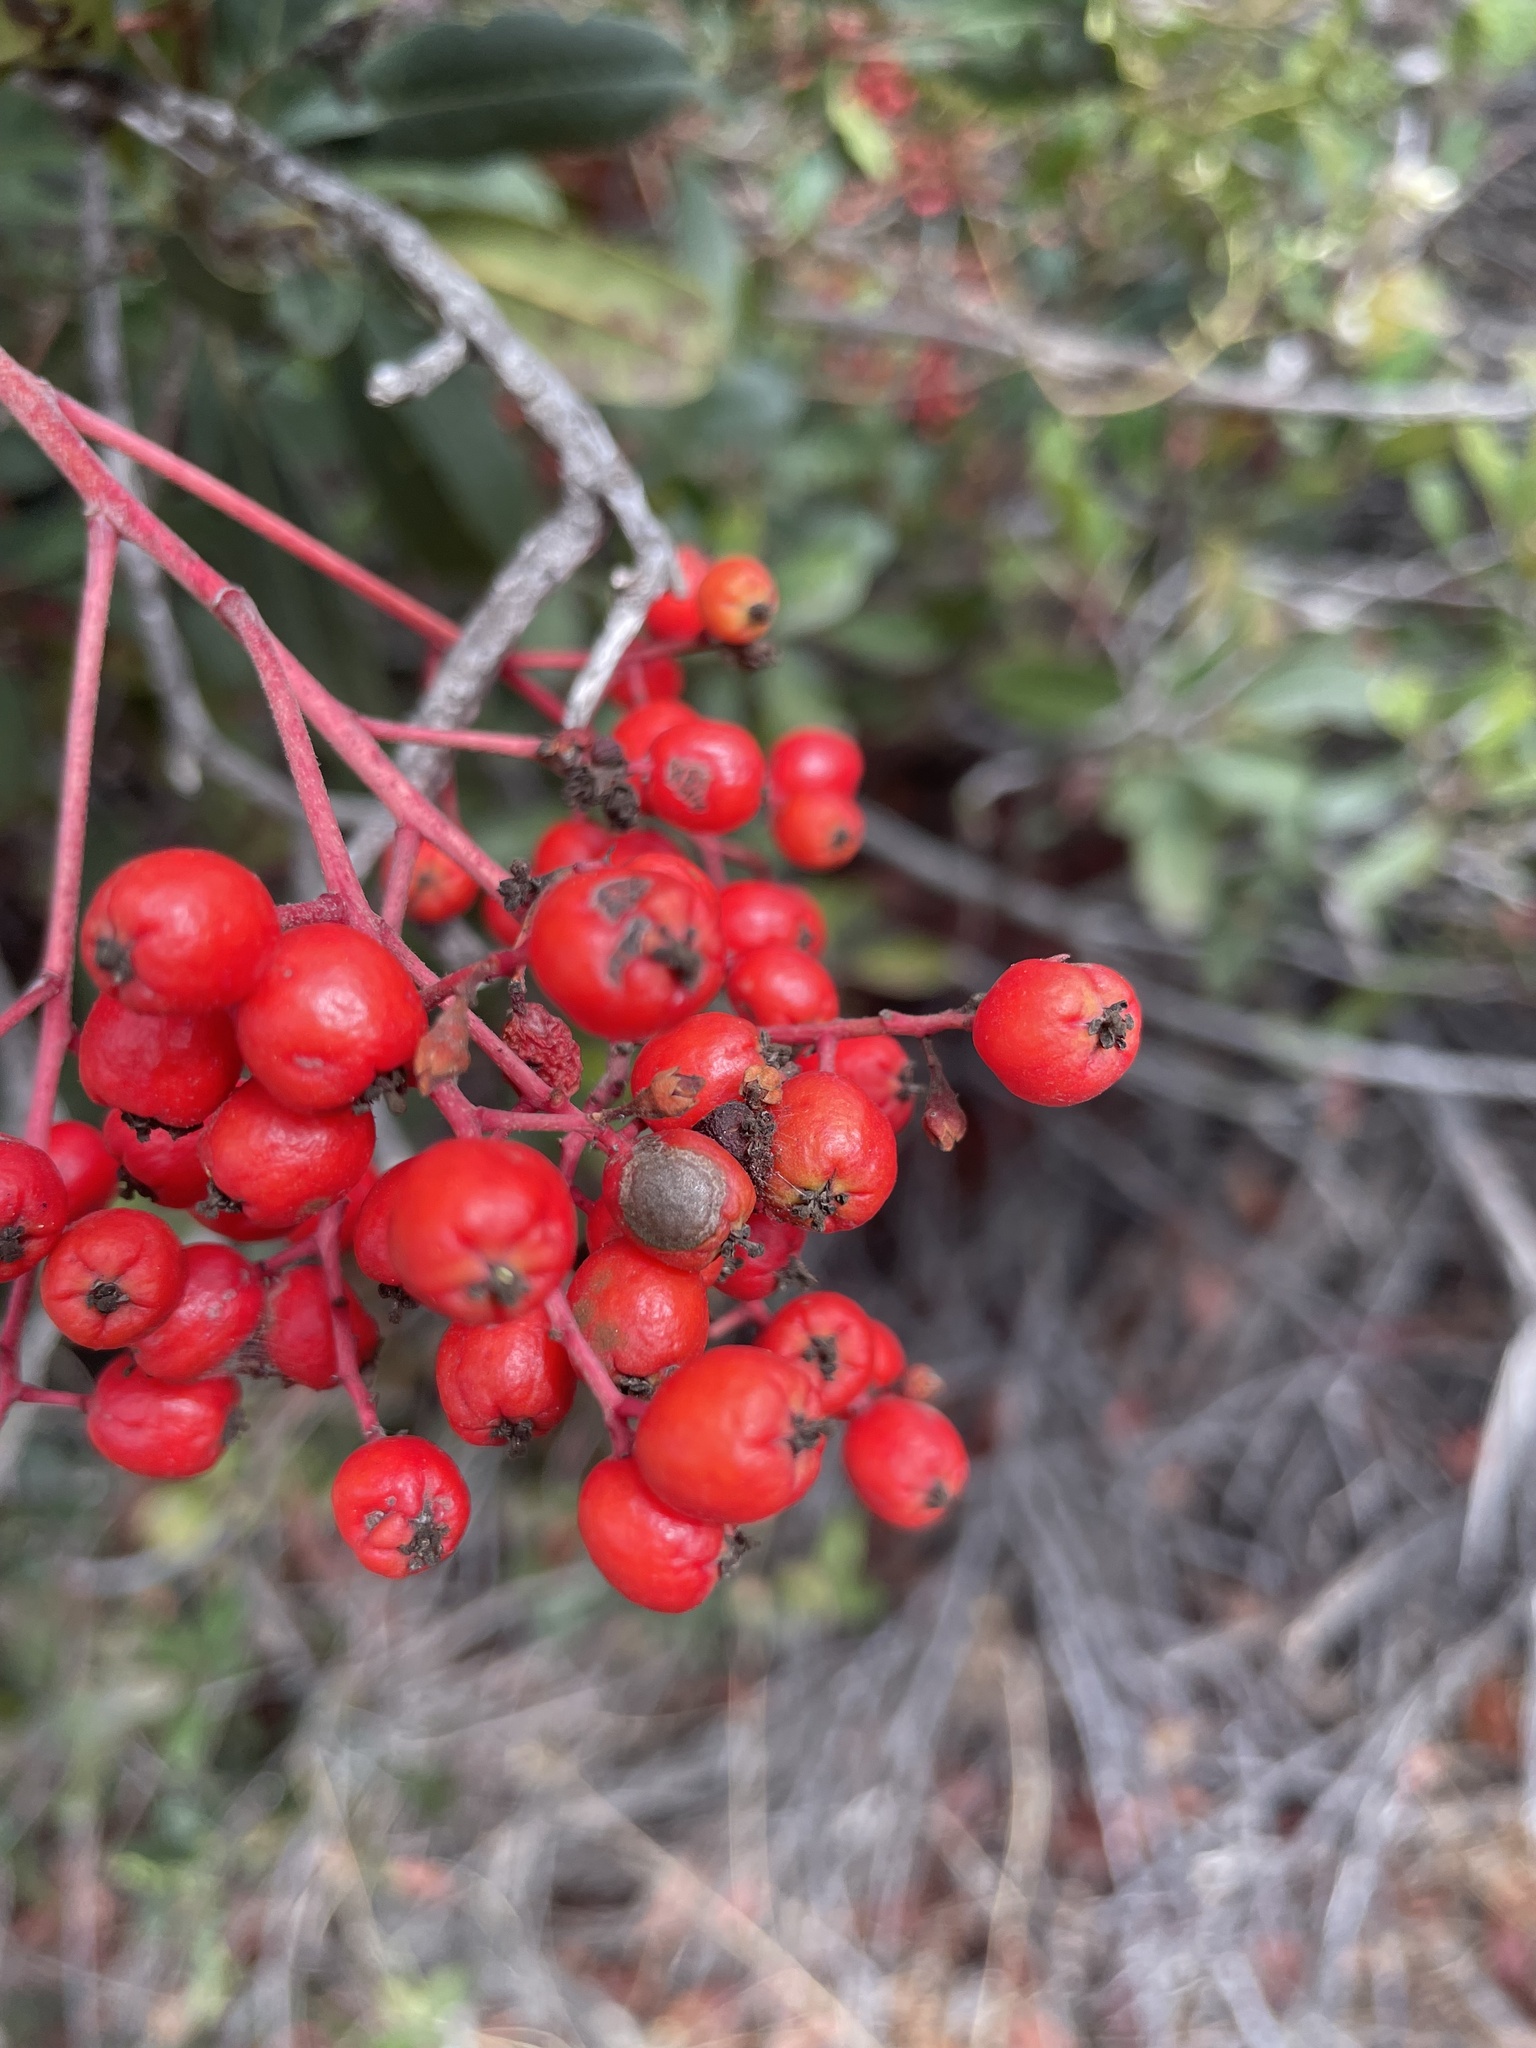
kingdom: Plantae
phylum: Tracheophyta
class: Magnoliopsida
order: Rosales
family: Rosaceae
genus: Heteromeles
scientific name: Heteromeles arbutifolia
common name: California-holly
